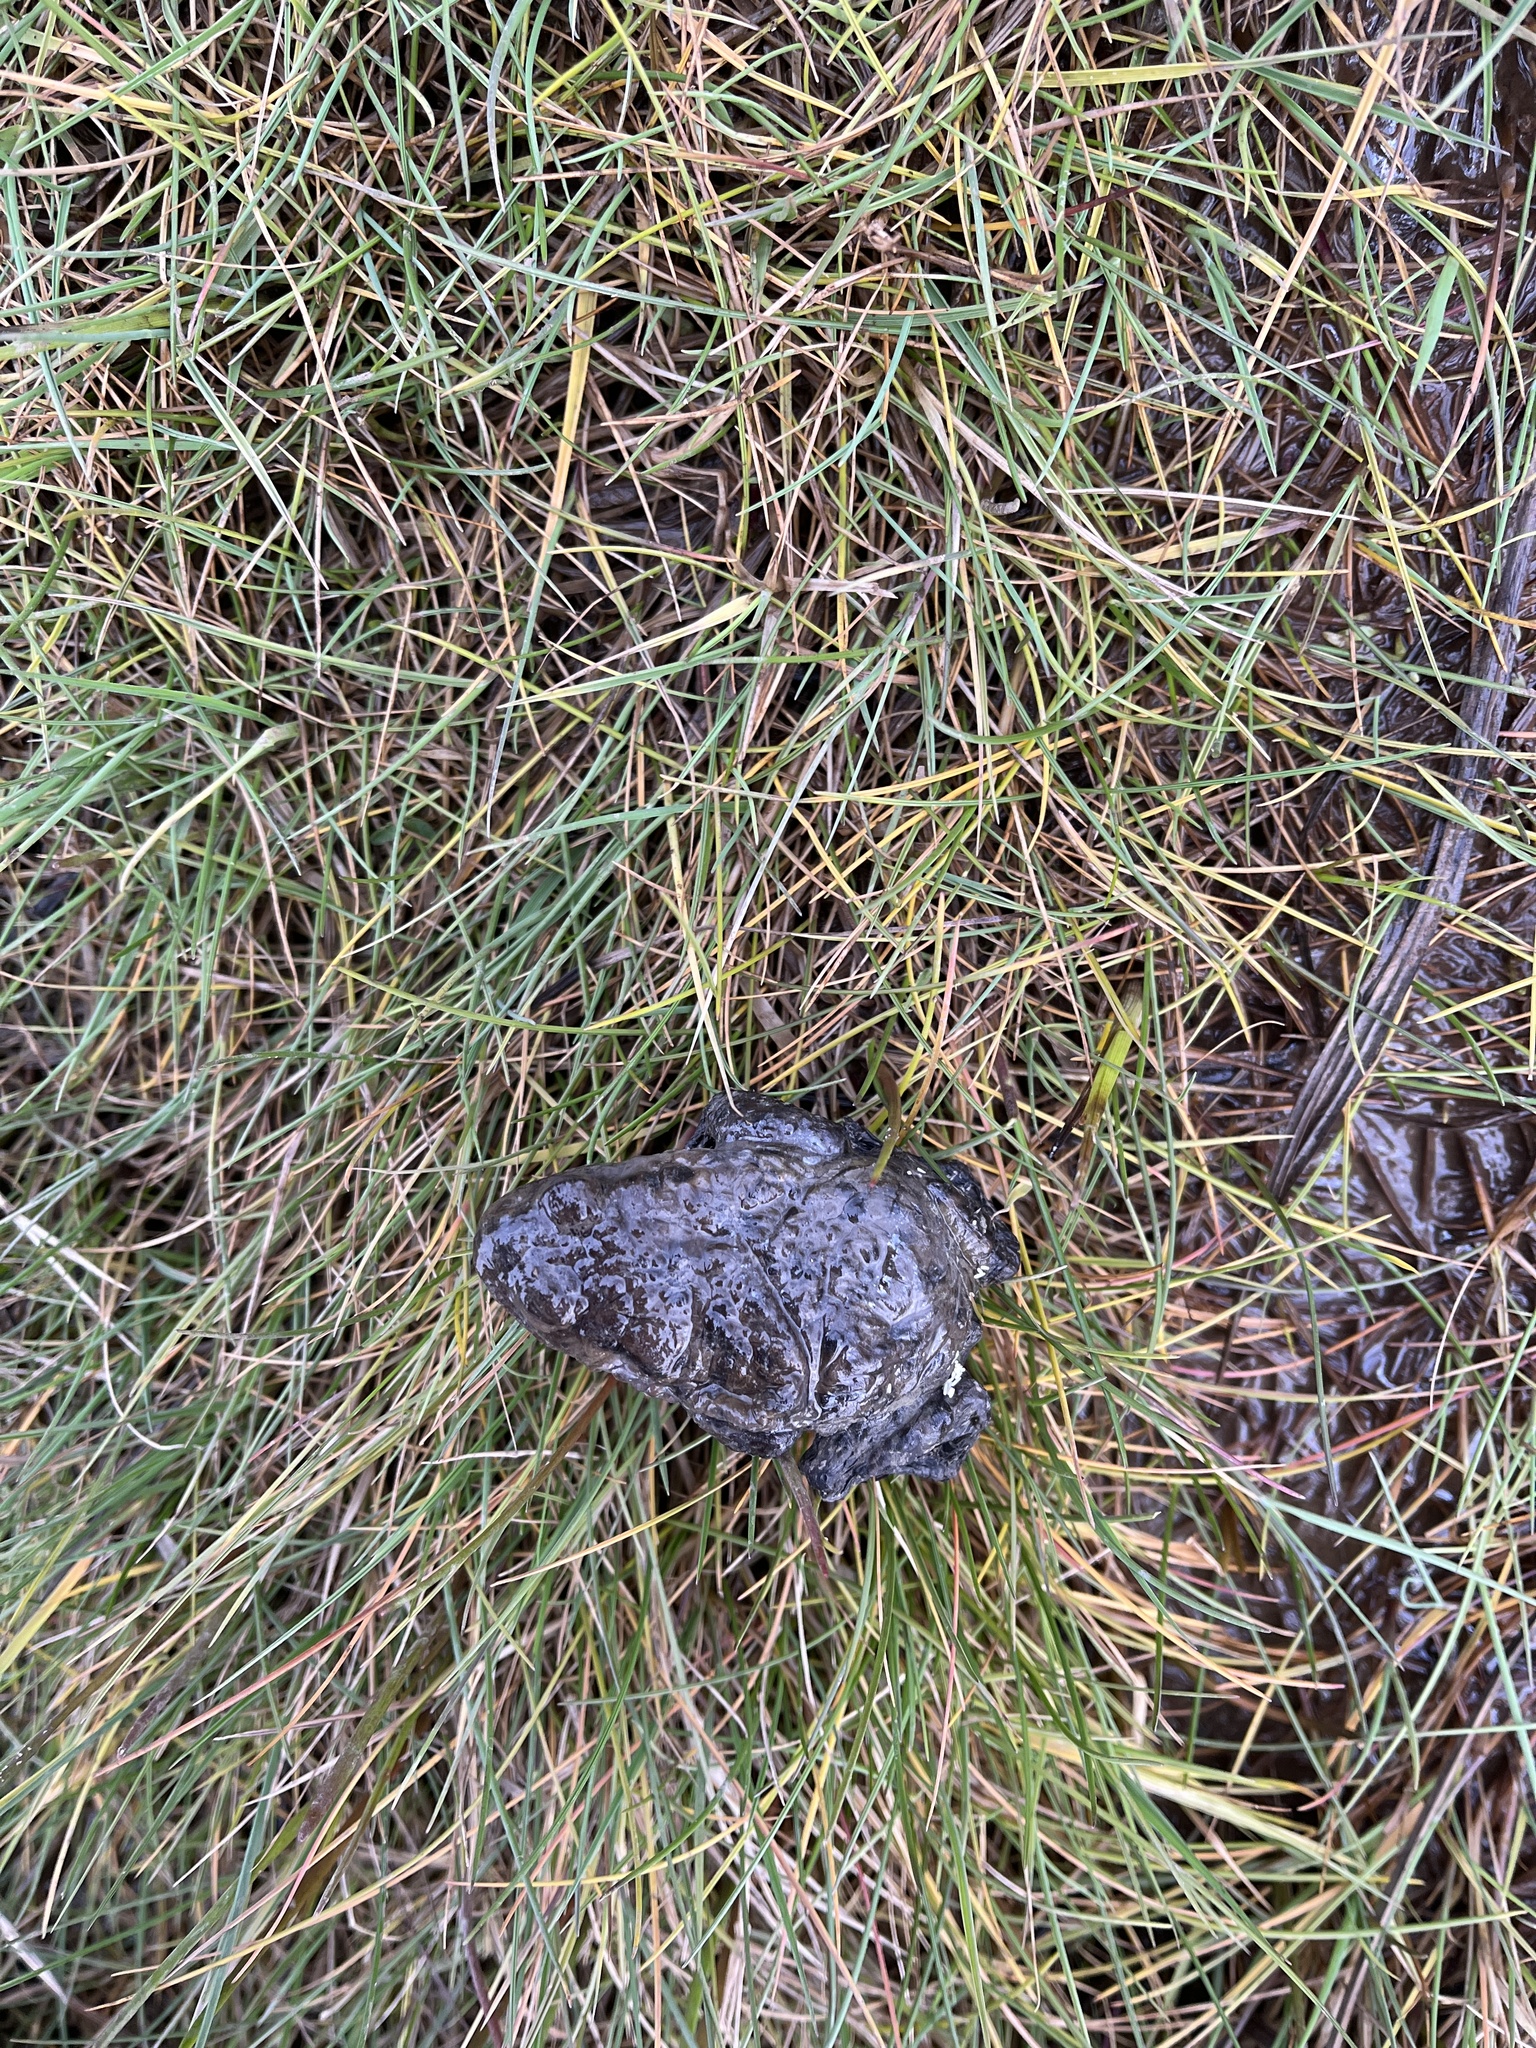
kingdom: Animalia
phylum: Chordata
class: Amphibia
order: Anura
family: Bufonidae
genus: Bufo
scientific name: Bufo bufo
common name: Common toad
